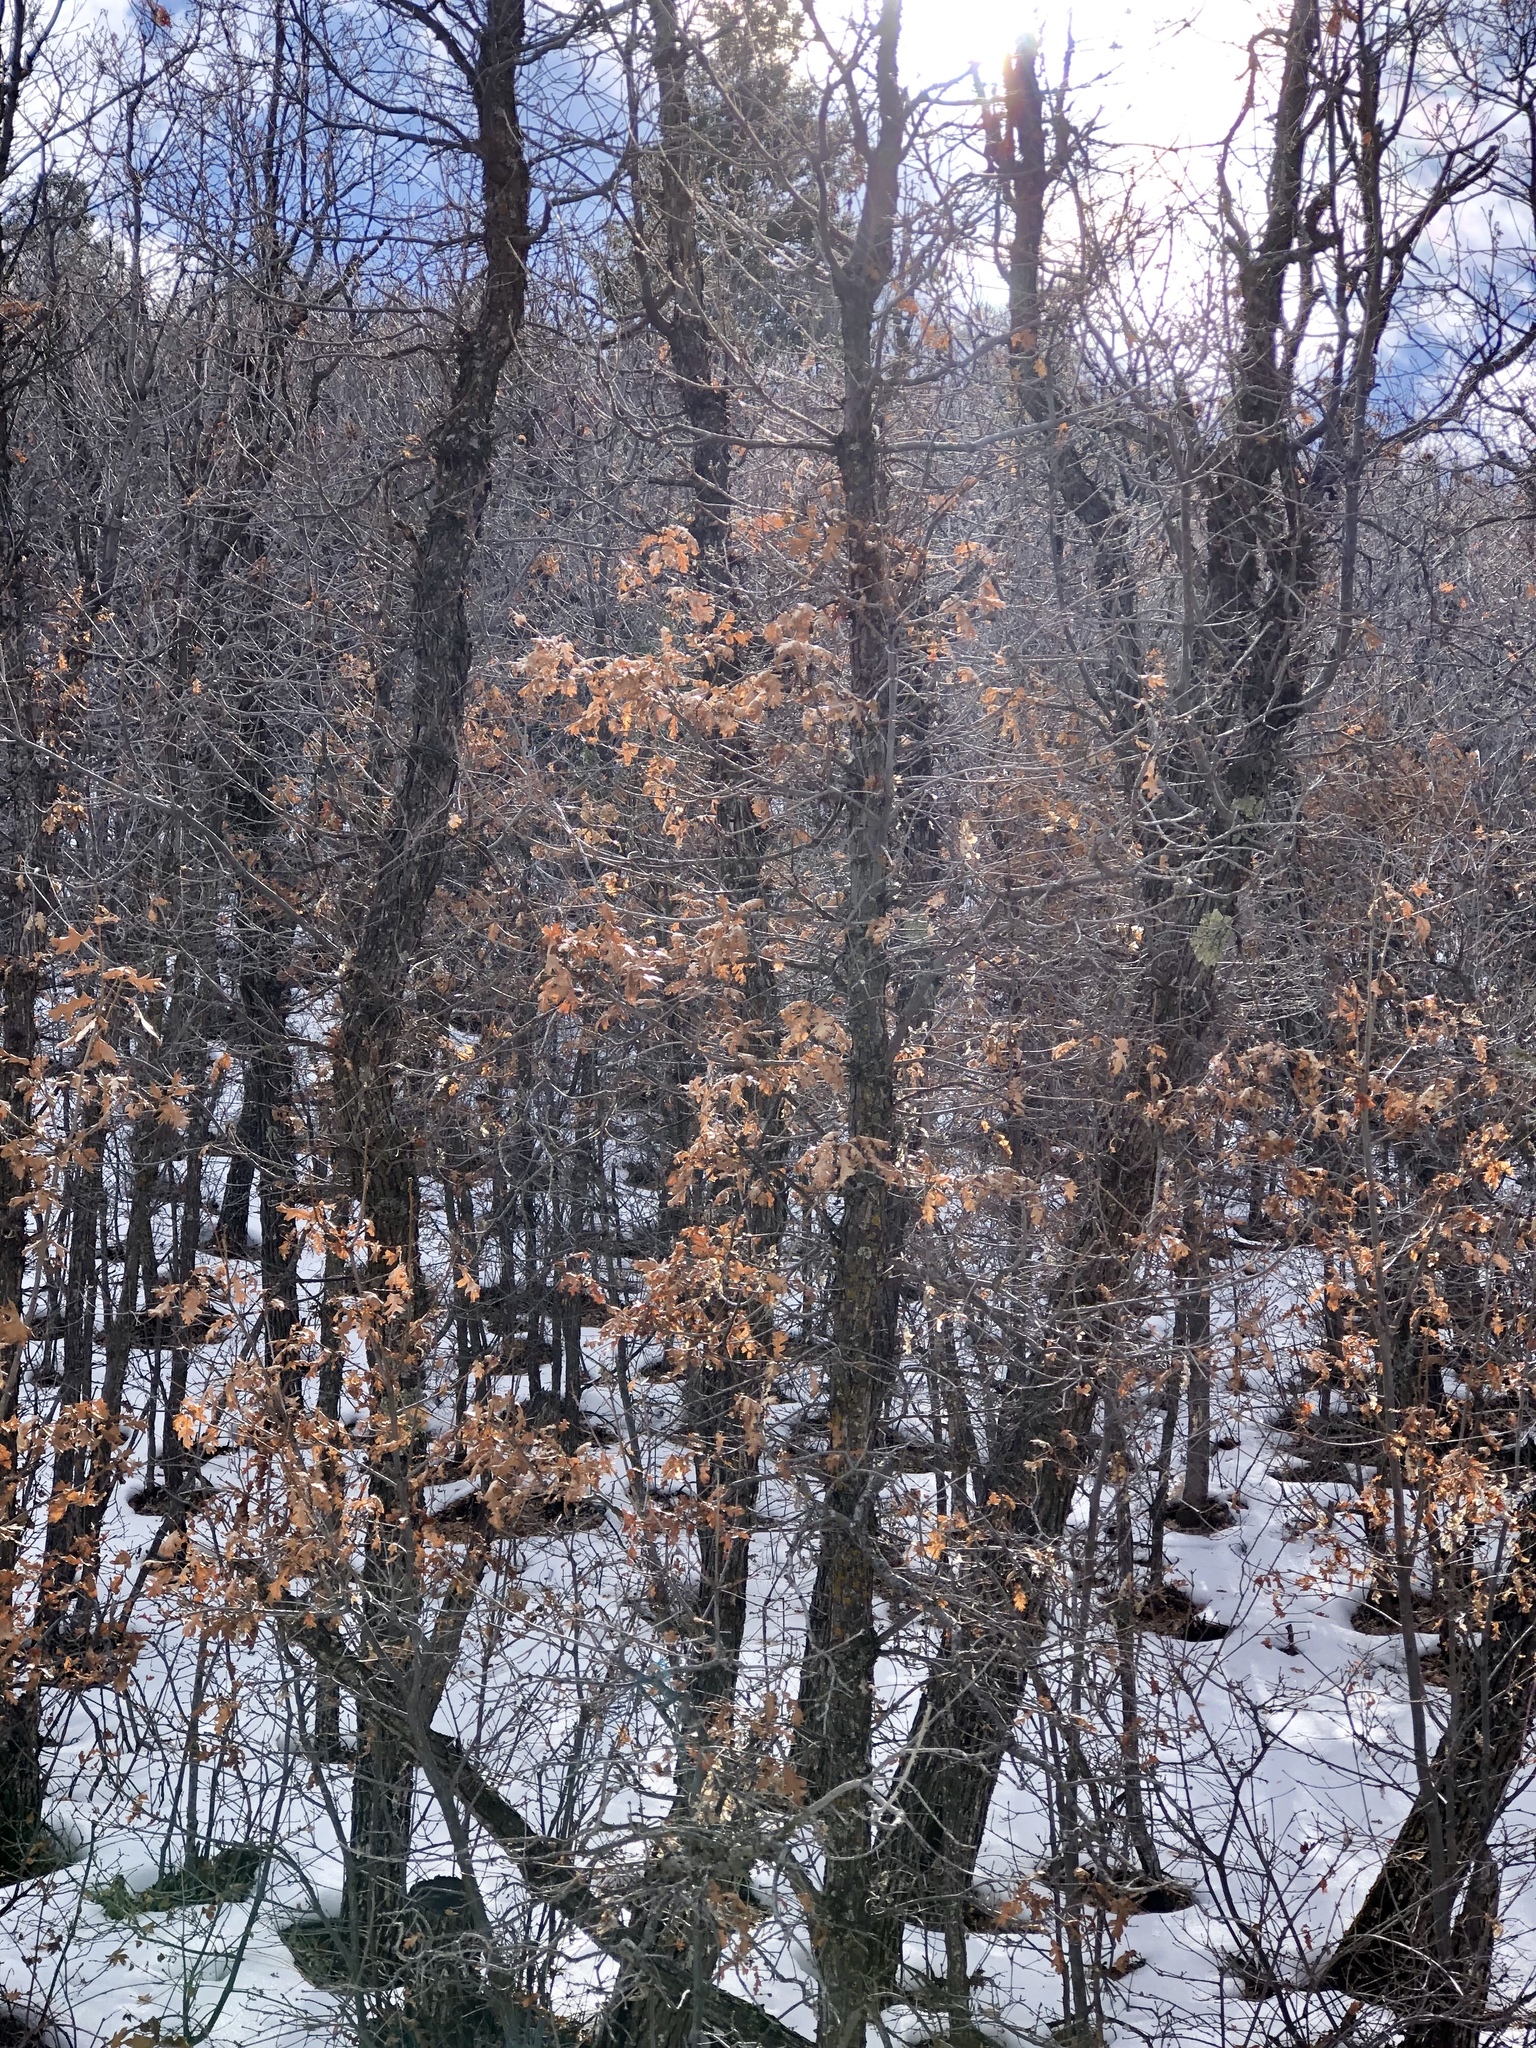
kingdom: Plantae
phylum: Tracheophyta
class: Magnoliopsida
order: Fagales
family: Fagaceae
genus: Quercus
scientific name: Quercus gambelii
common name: Gambel oak
